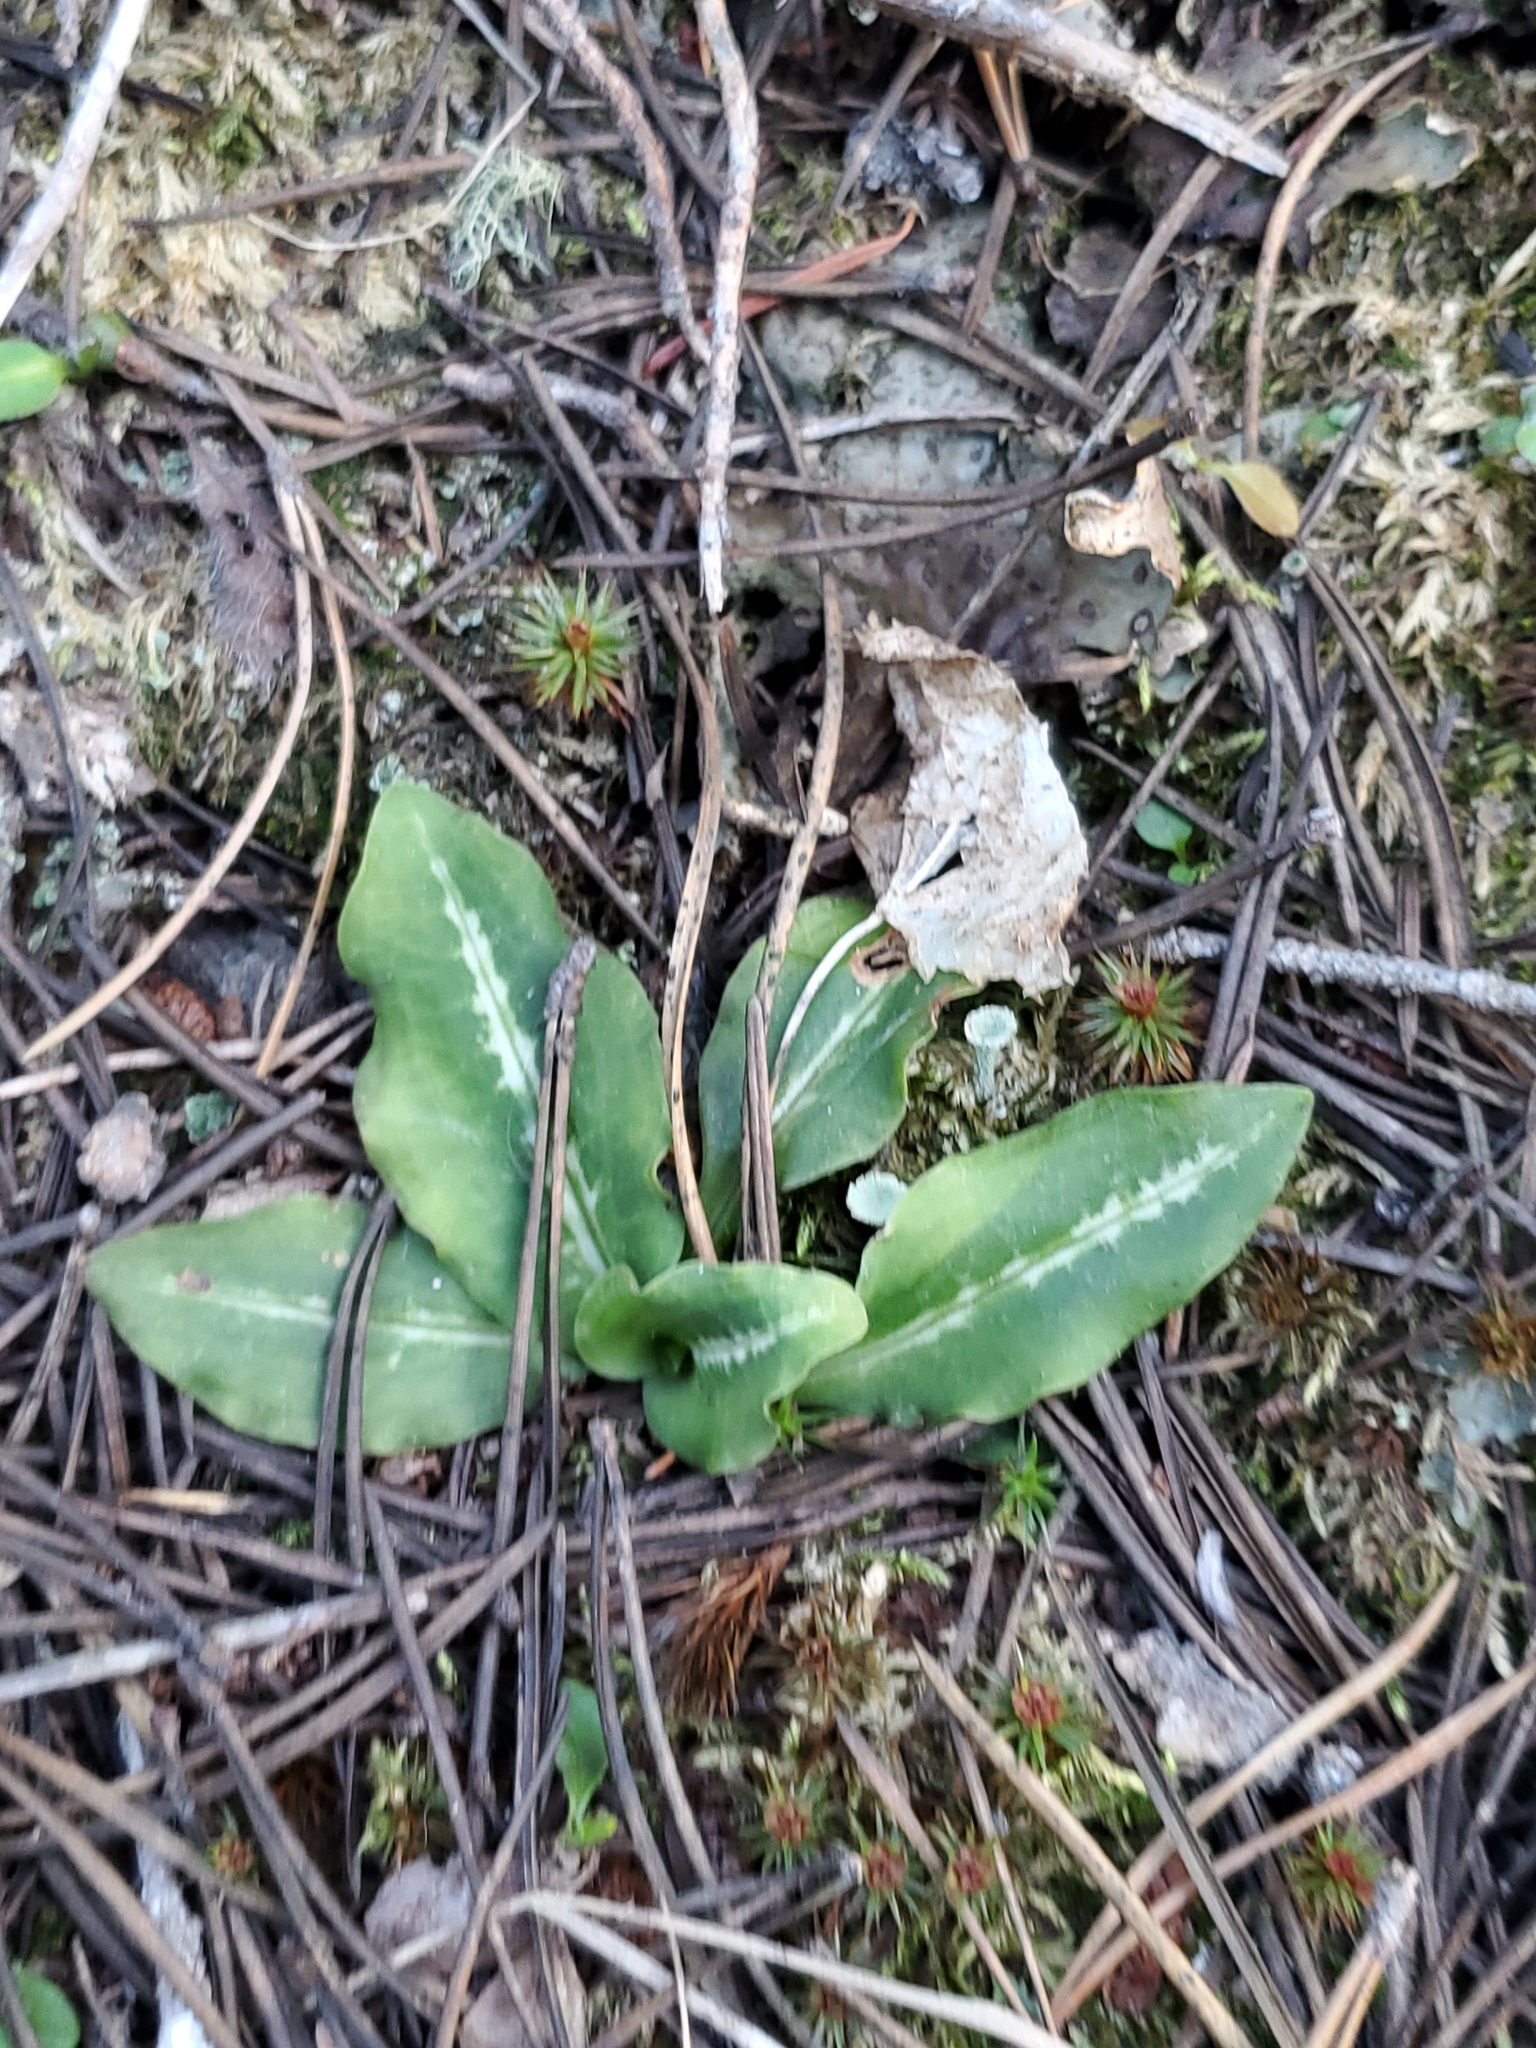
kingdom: Plantae
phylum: Tracheophyta
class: Liliopsida
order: Asparagales
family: Orchidaceae
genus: Goodyera
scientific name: Goodyera oblongifolia
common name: Giant rattlesnake-plantain
